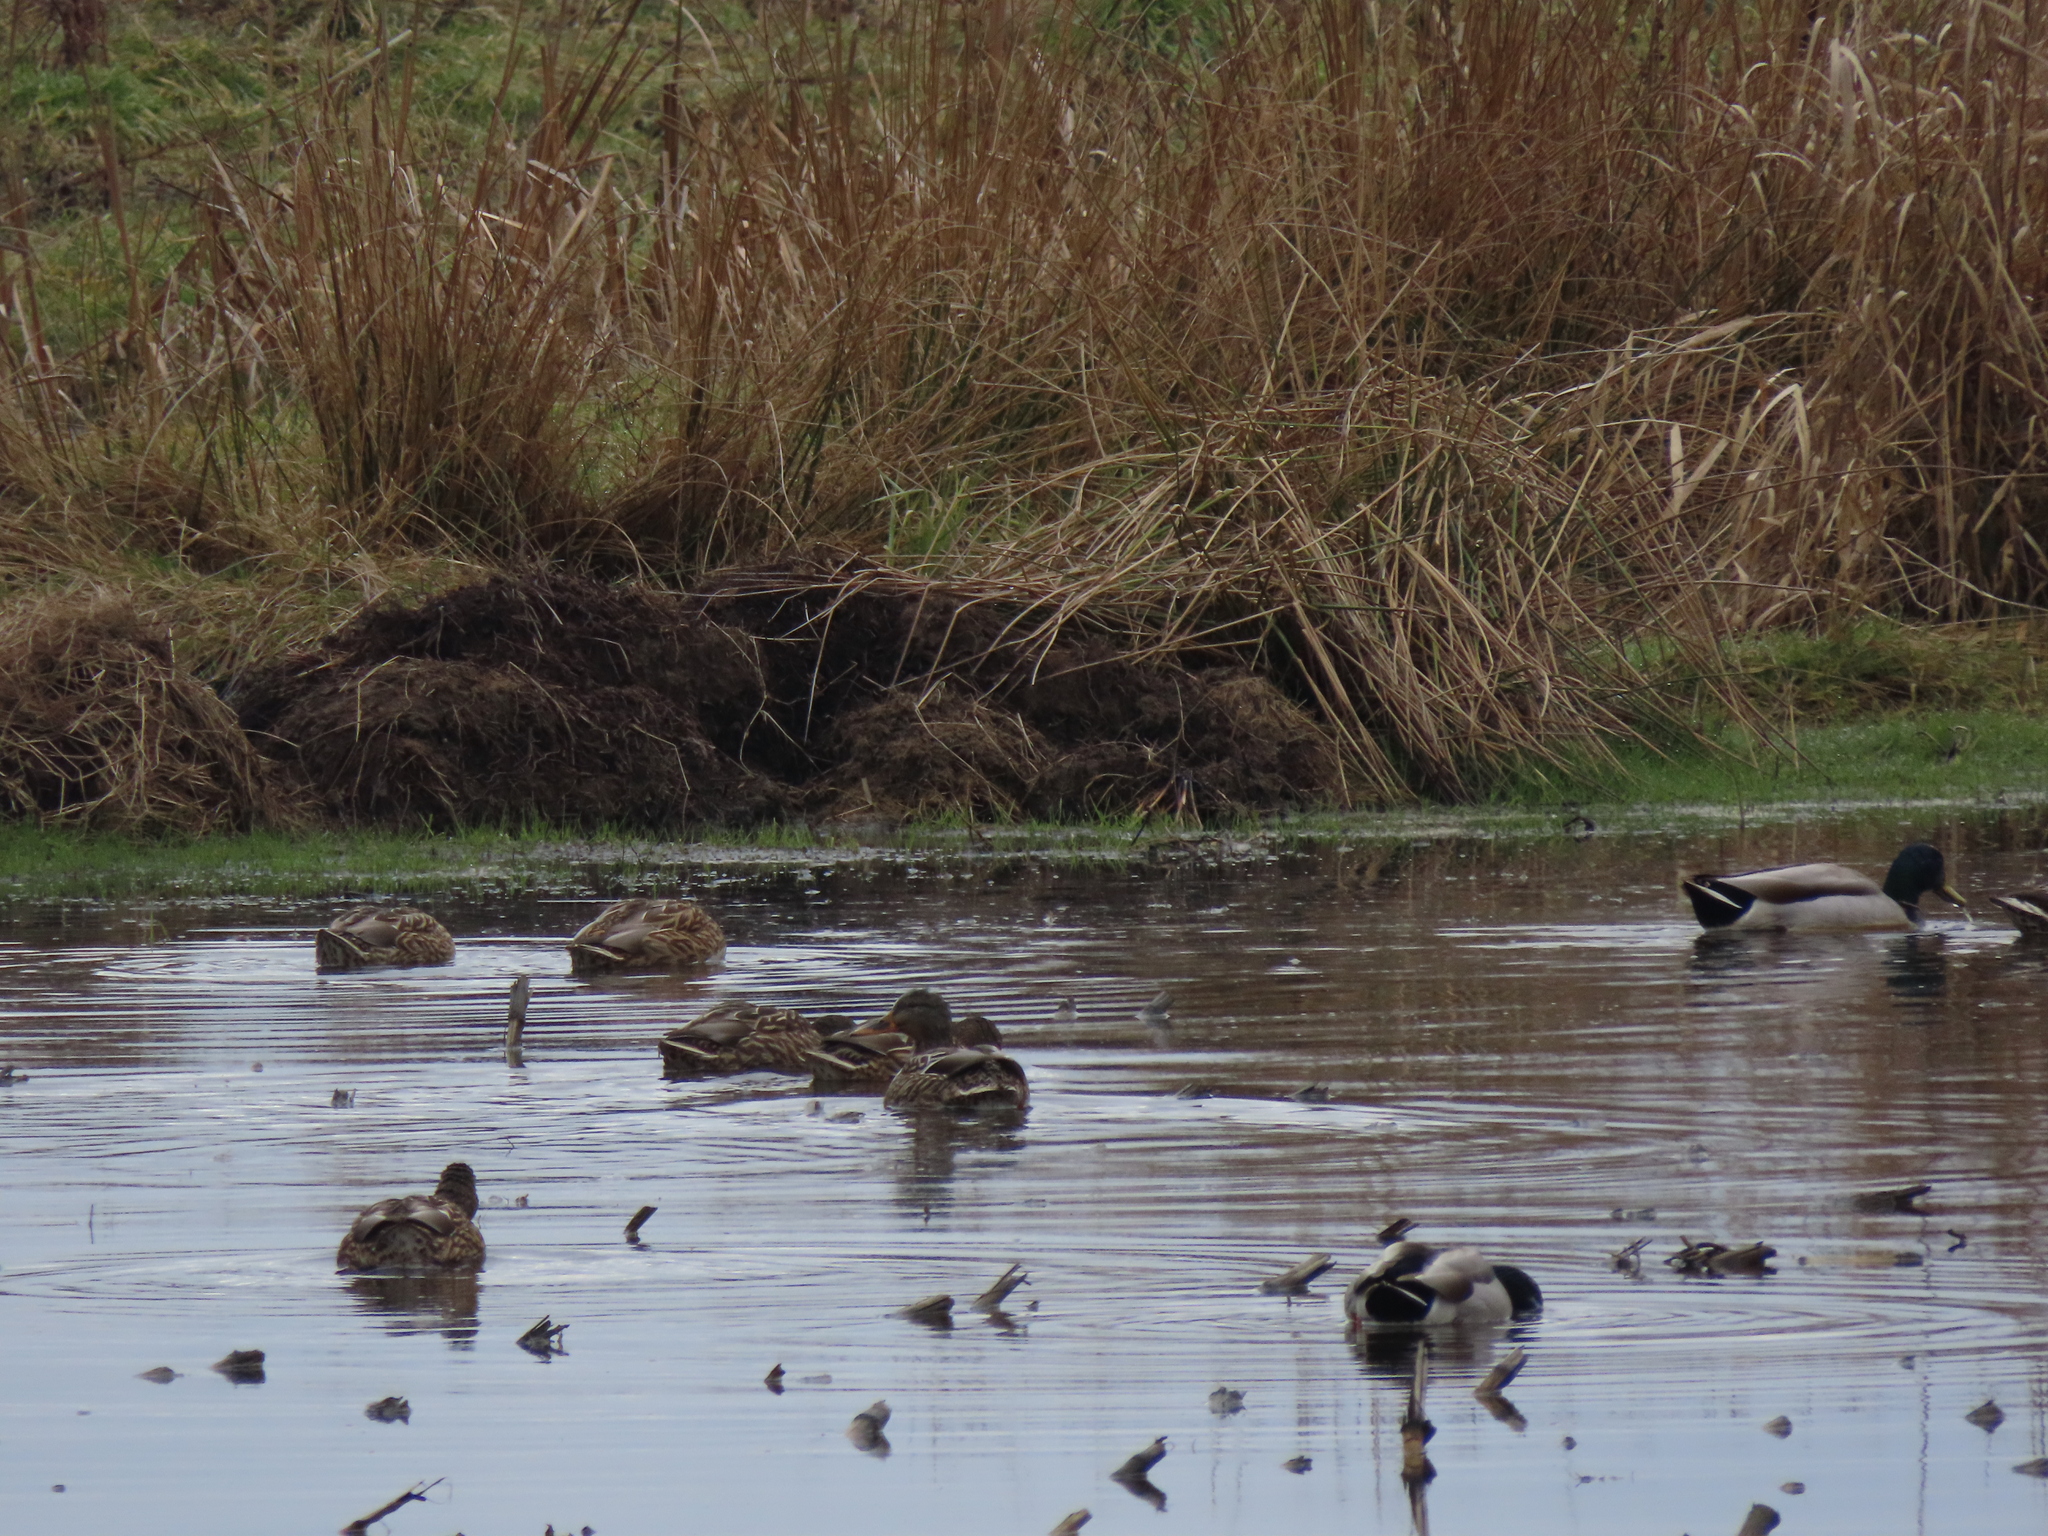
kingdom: Animalia
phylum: Chordata
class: Aves
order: Anseriformes
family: Anatidae
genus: Anas
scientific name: Anas platyrhynchos
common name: Mallard
